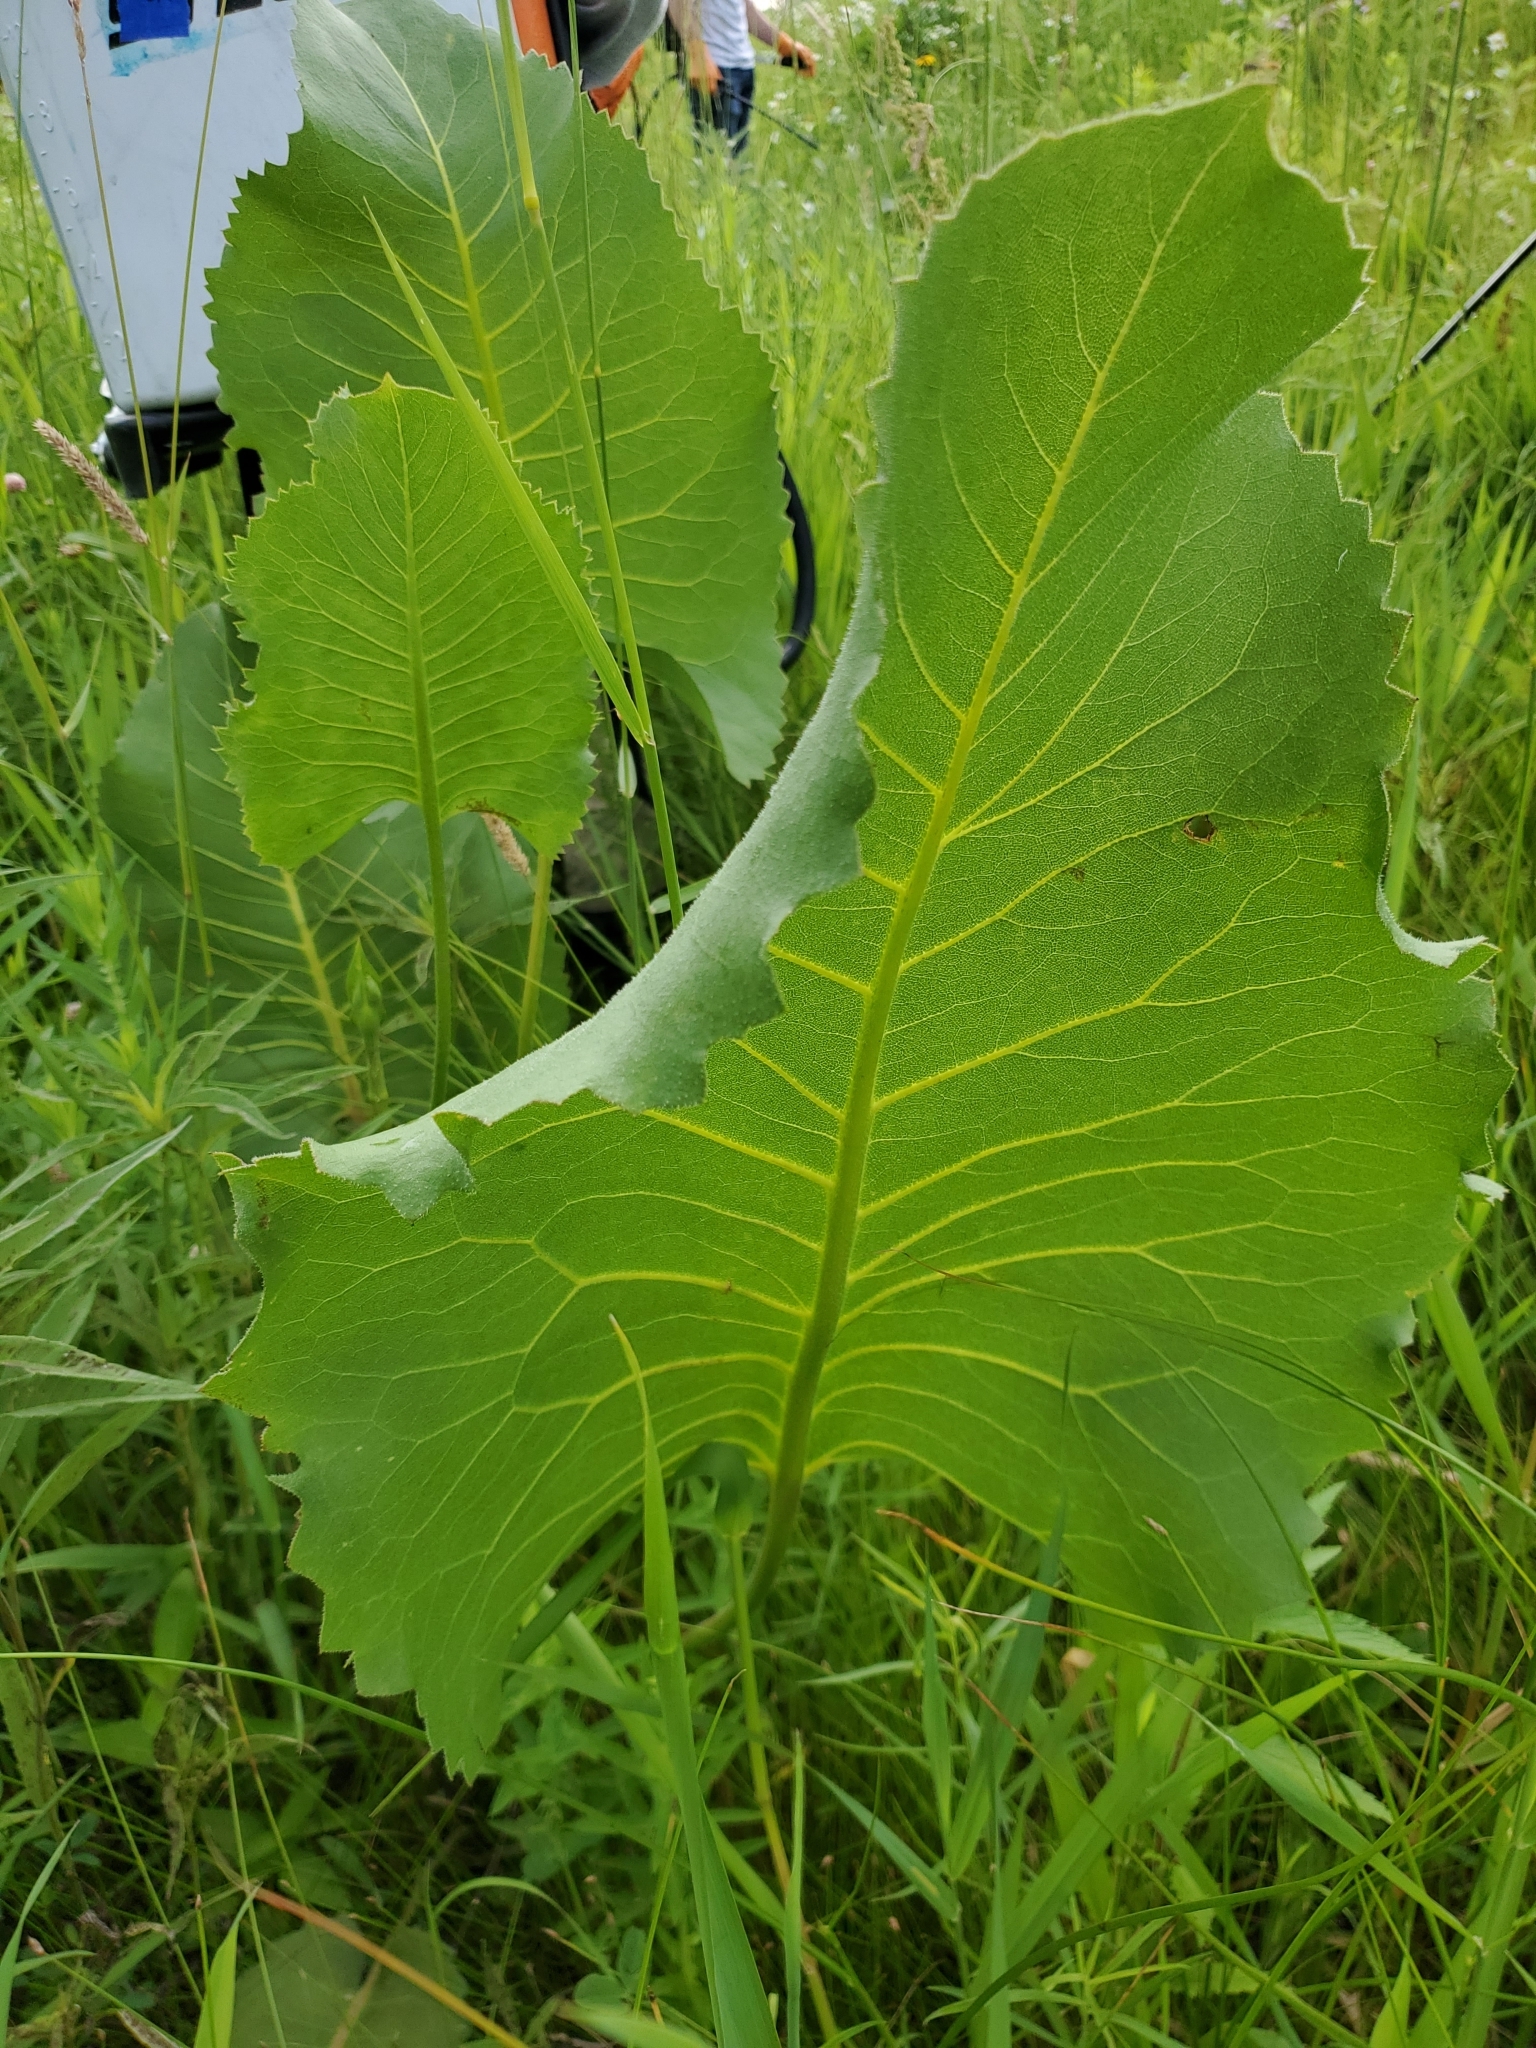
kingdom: Plantae
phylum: Tracheophyta
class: Magnoliopsida
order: Asterales
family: Asteraceae
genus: Silphium
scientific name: Silphium terebinthinaceum
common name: Basal-leaf rosinweed
